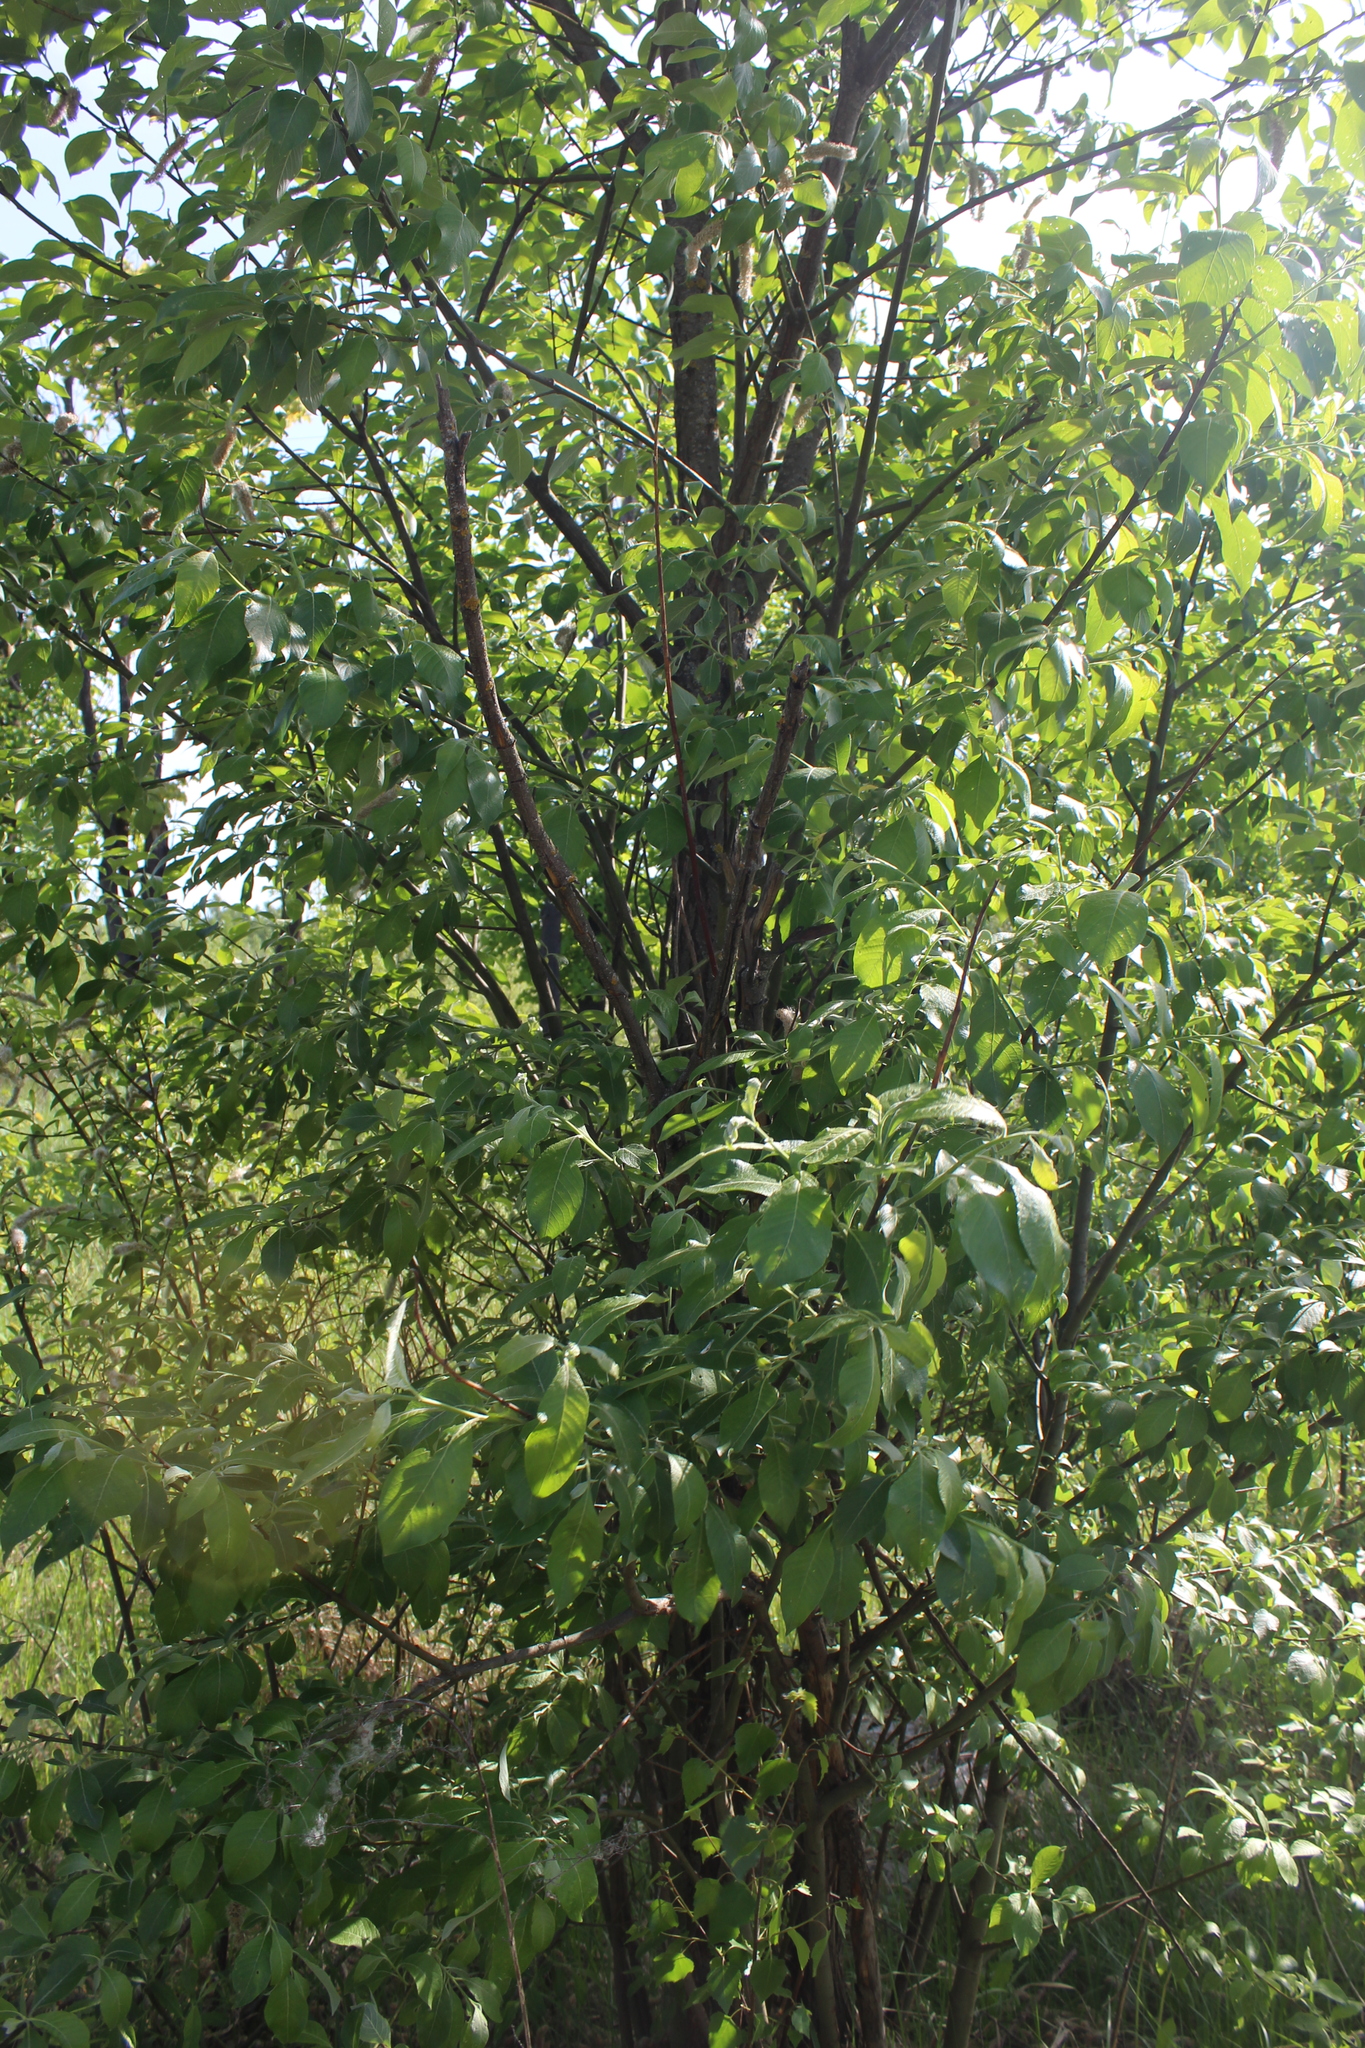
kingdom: Plantae
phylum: Tracheophyta
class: Magnoliopsida
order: Malpighiales
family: Salicaceae
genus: Salix
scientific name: Salix caprea
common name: Goat willow
